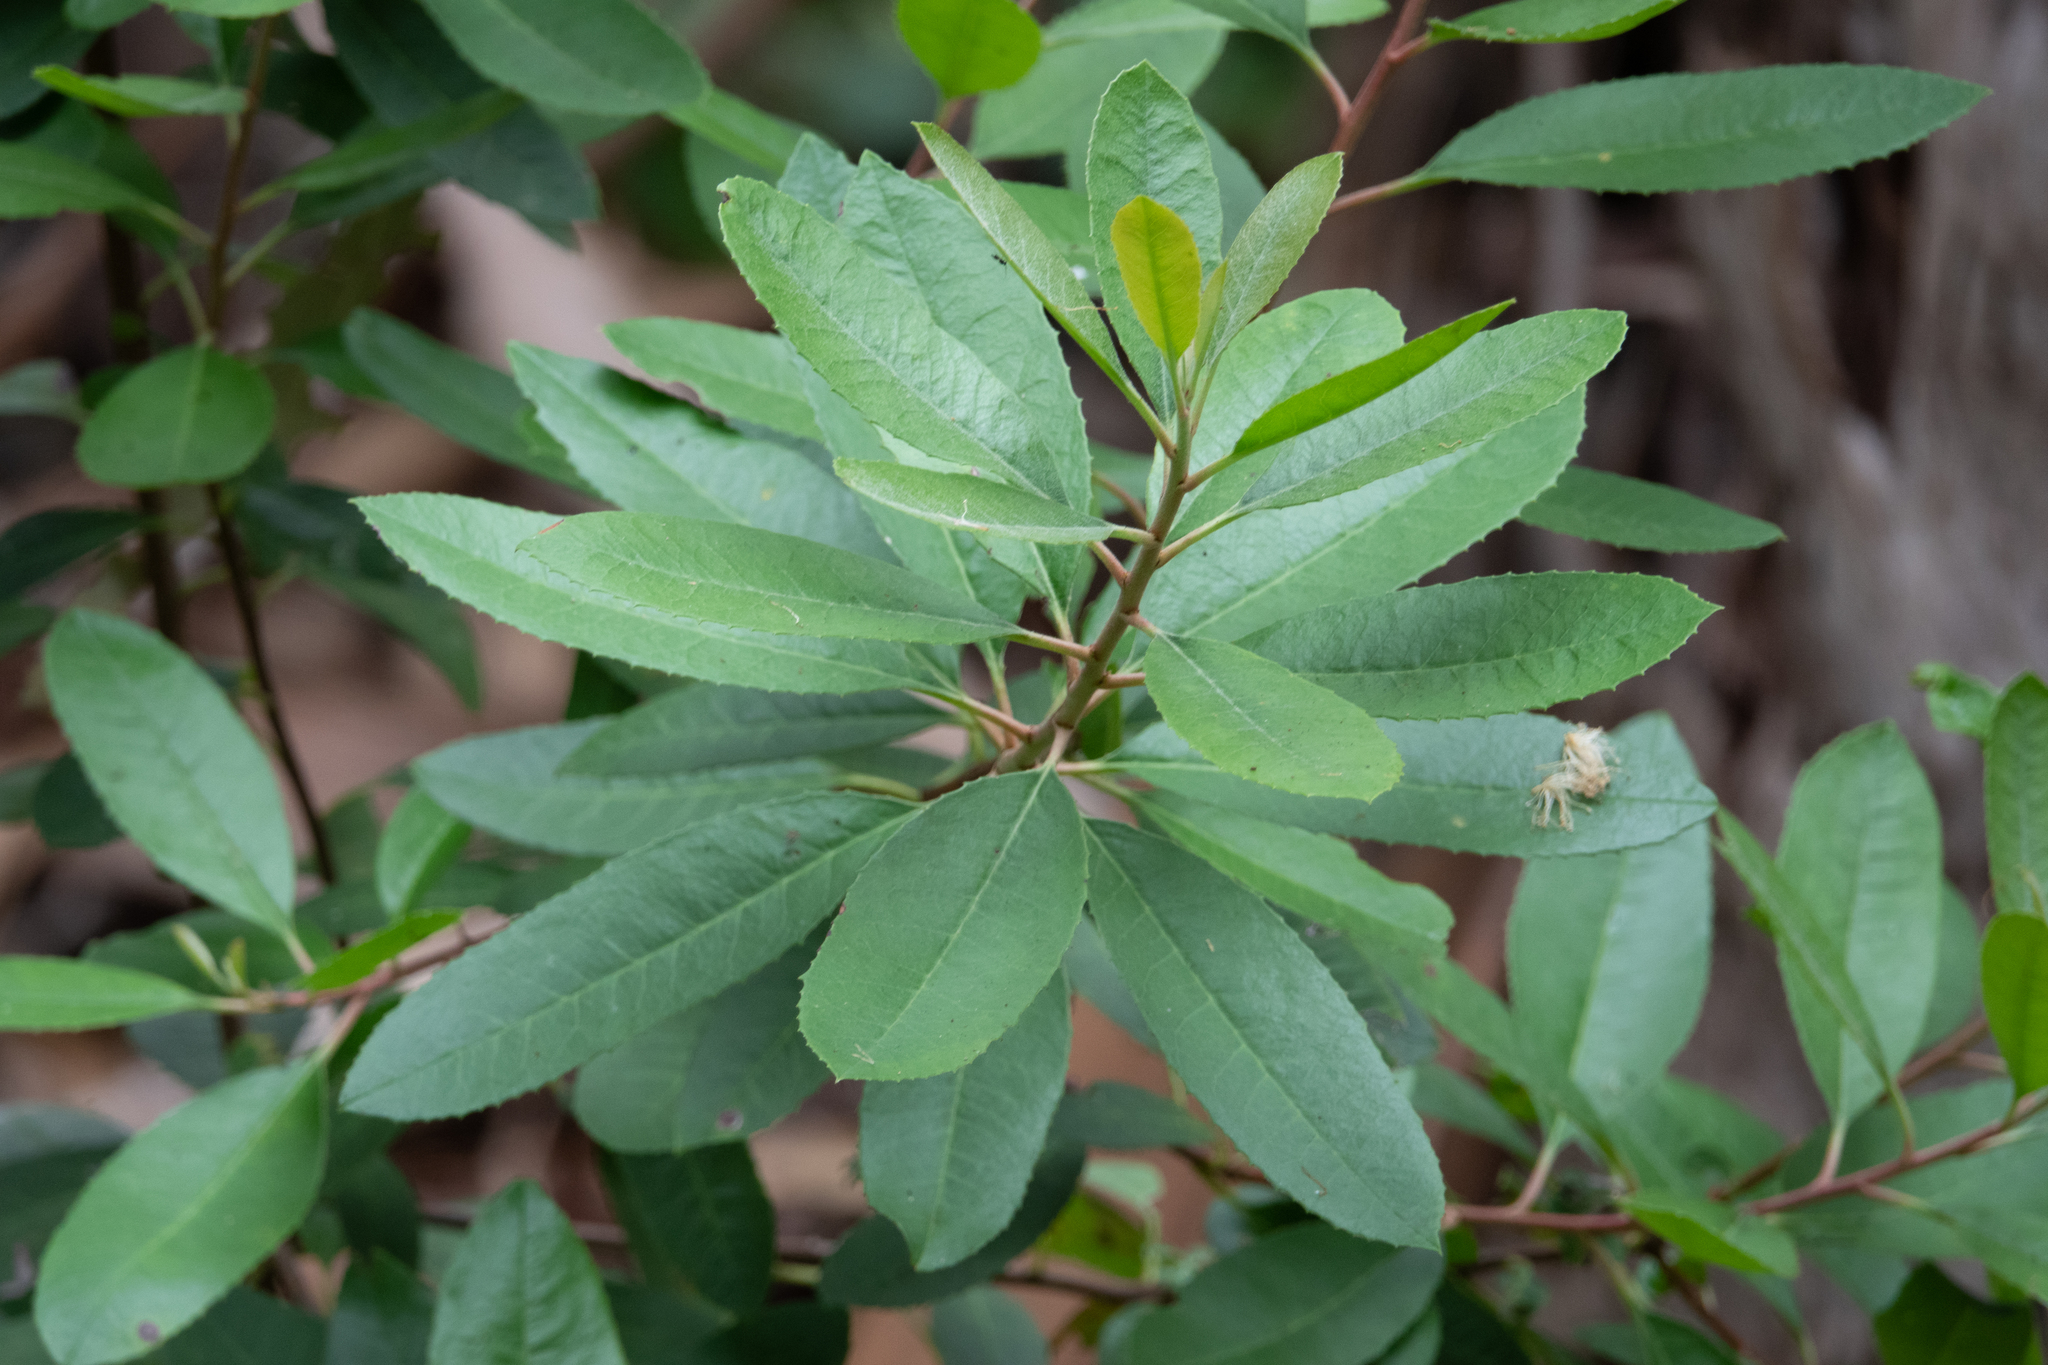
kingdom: Plantae
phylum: Tracheophyta
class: Magnoliopsida
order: Rosales
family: Rosaceae
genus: Heteromeles
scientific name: Heteromeles arbutifolia
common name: California-holly
